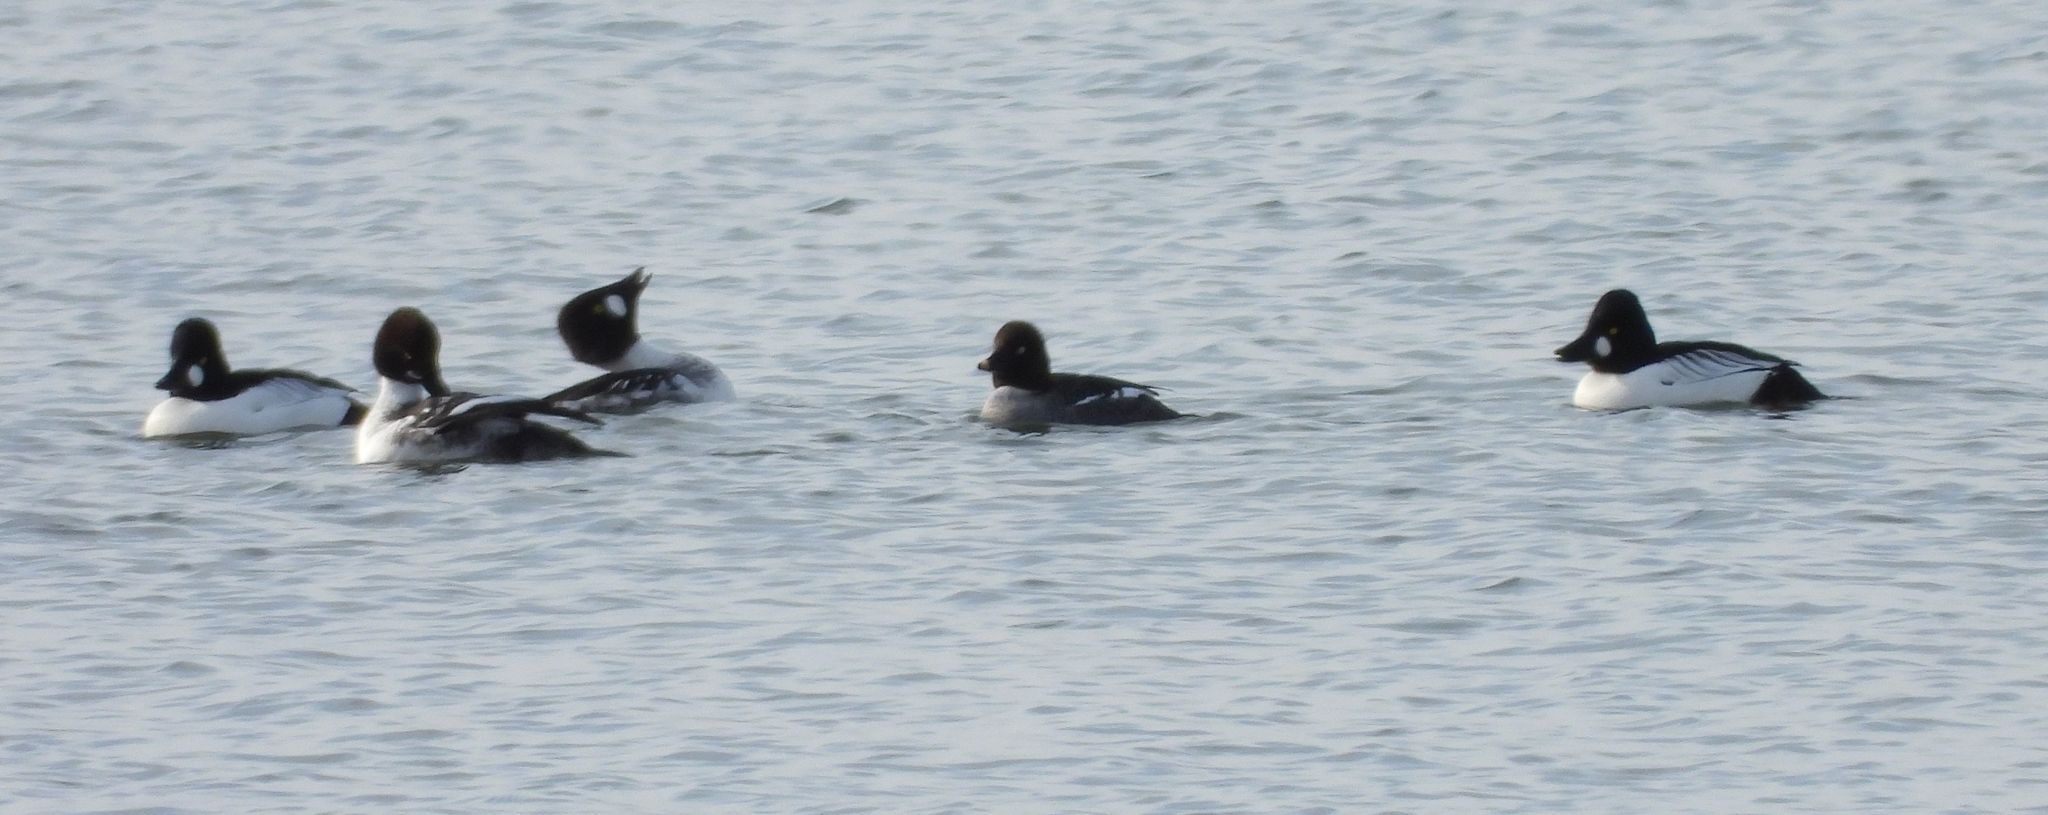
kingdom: Animalia
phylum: Chordata
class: Aves
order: Anseriformes
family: Anatidae
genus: Bucephala
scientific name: Bucephala clangula
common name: Common goldeneye
